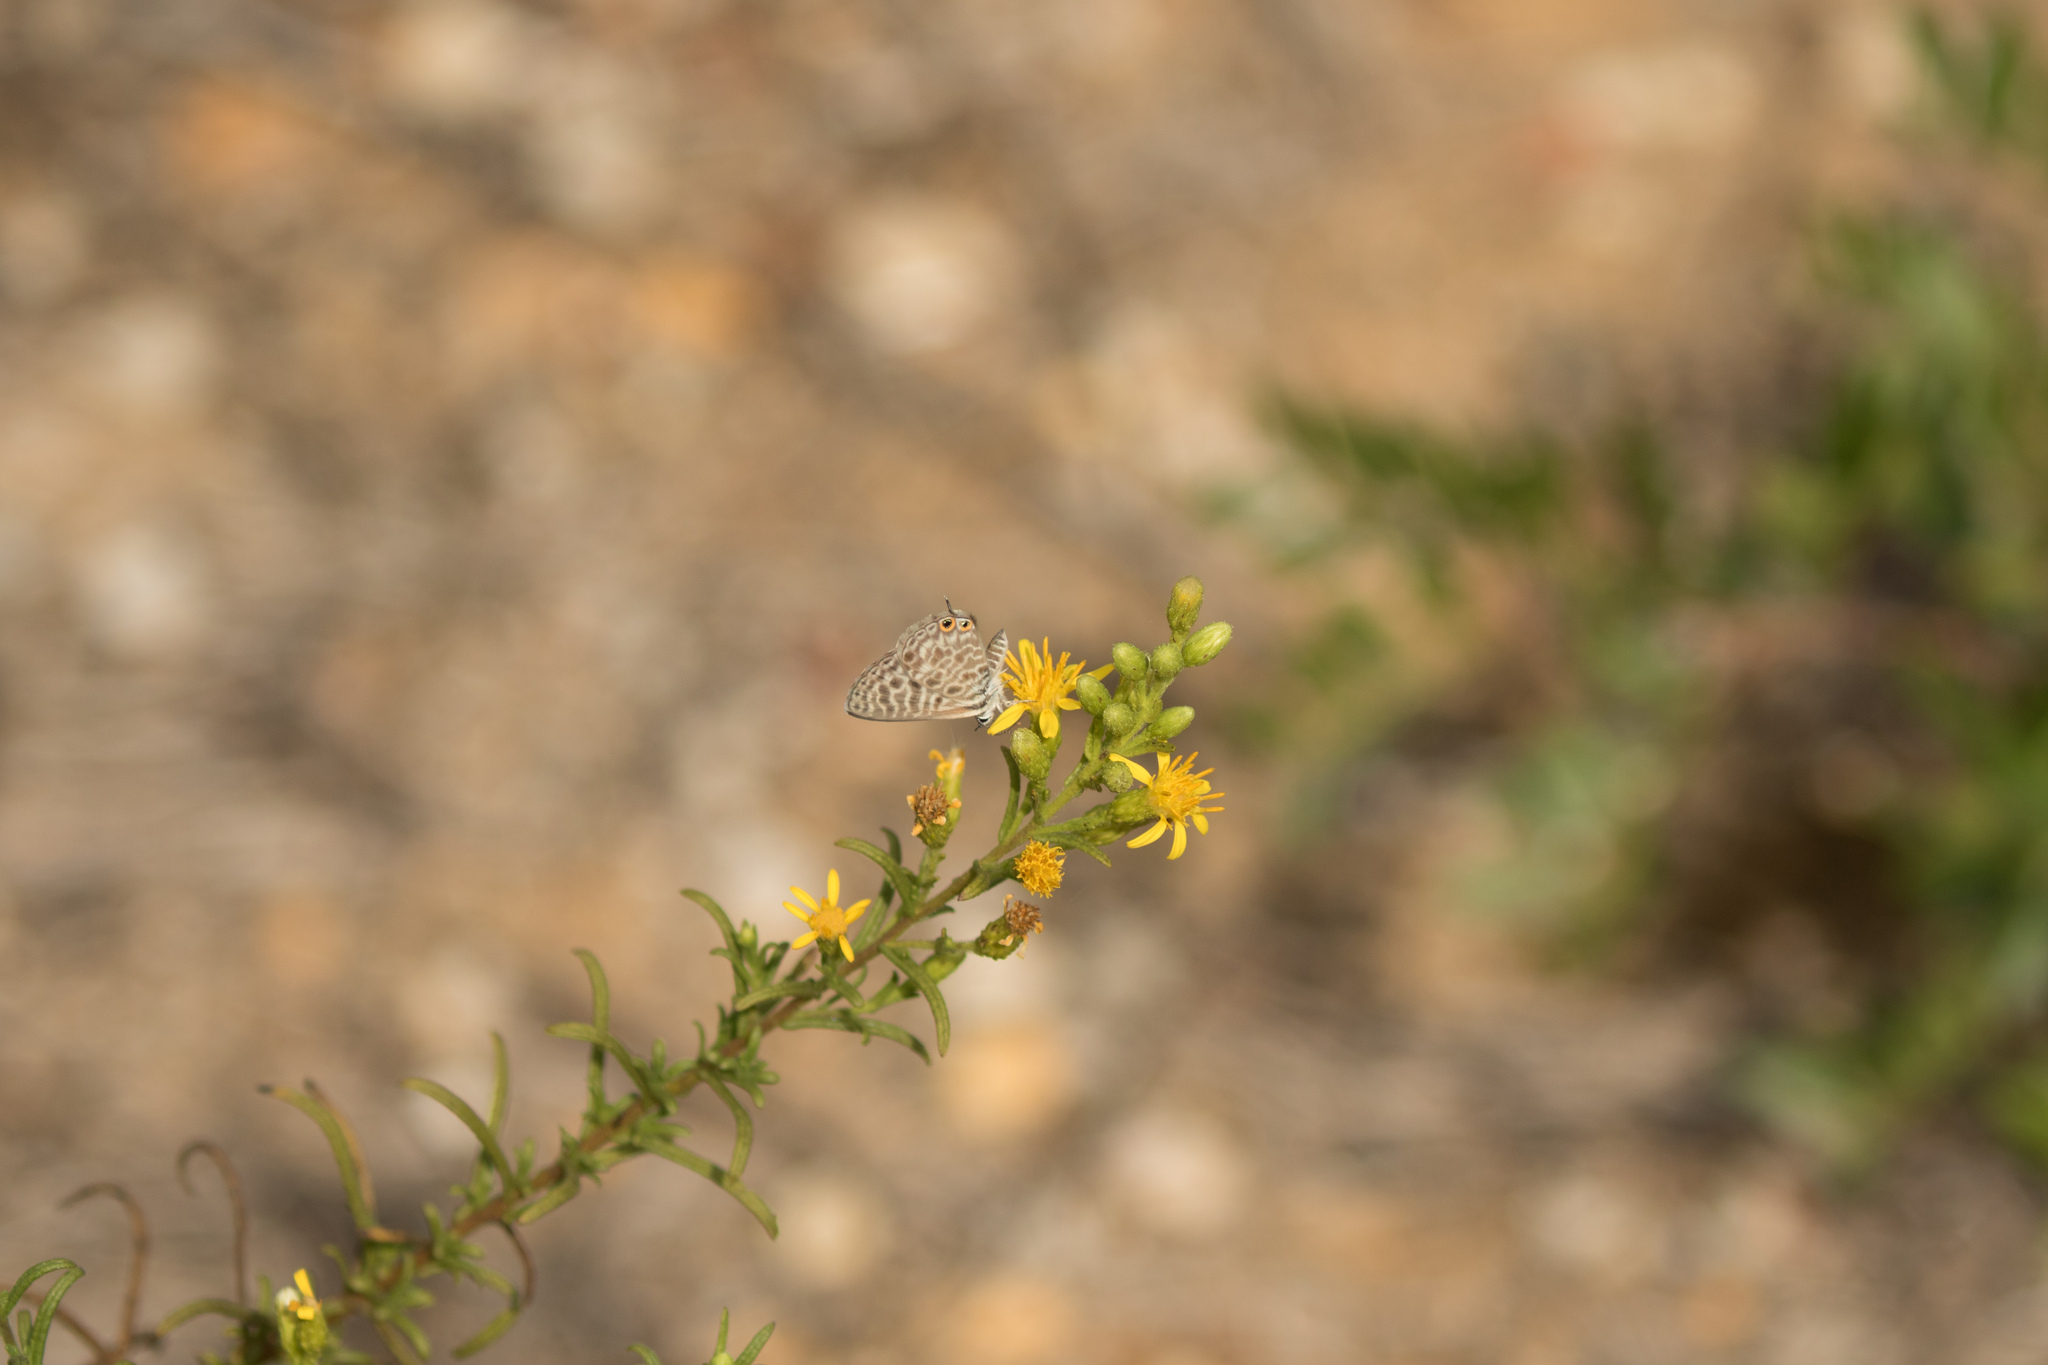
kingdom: Animalia
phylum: Arthropoda
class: Insecta
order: Lepidoptera
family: Lycaenidae
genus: Leptotes
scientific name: Leptotes pirithous
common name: Lang's short-tailed blue
